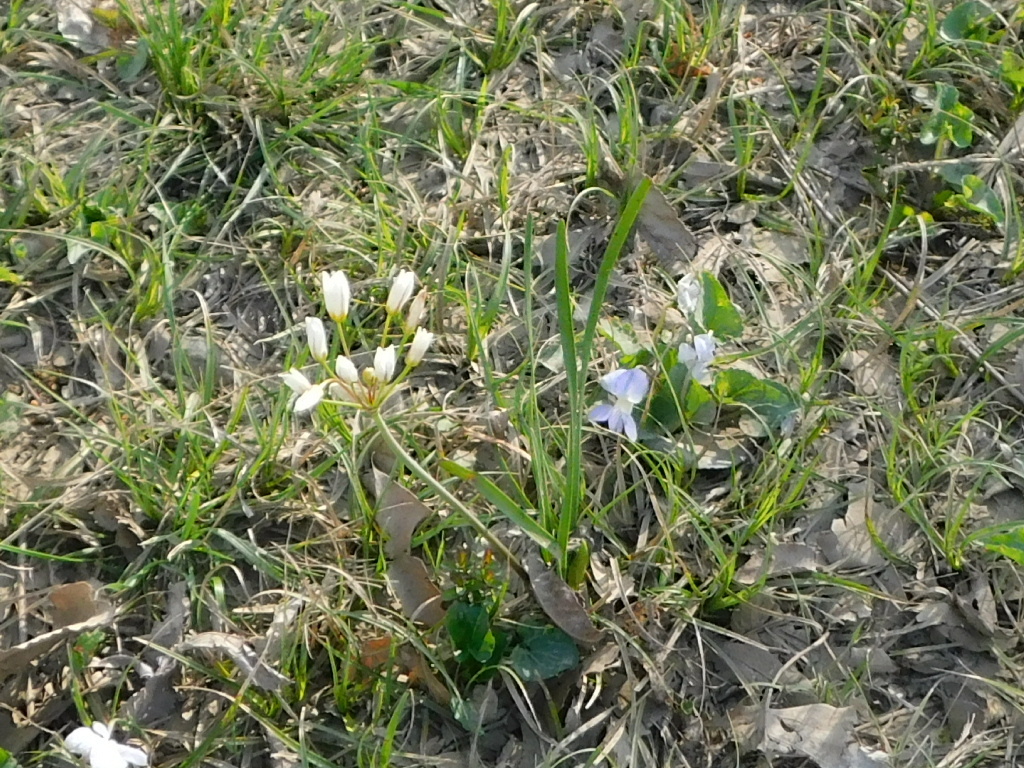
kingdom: Plantae
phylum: Tracheophyta
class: Liliopsida
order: Asparagales
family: Amaryllidaceae
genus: Nothoscordum
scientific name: Nothoscordum bivalve
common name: Crow-poison
